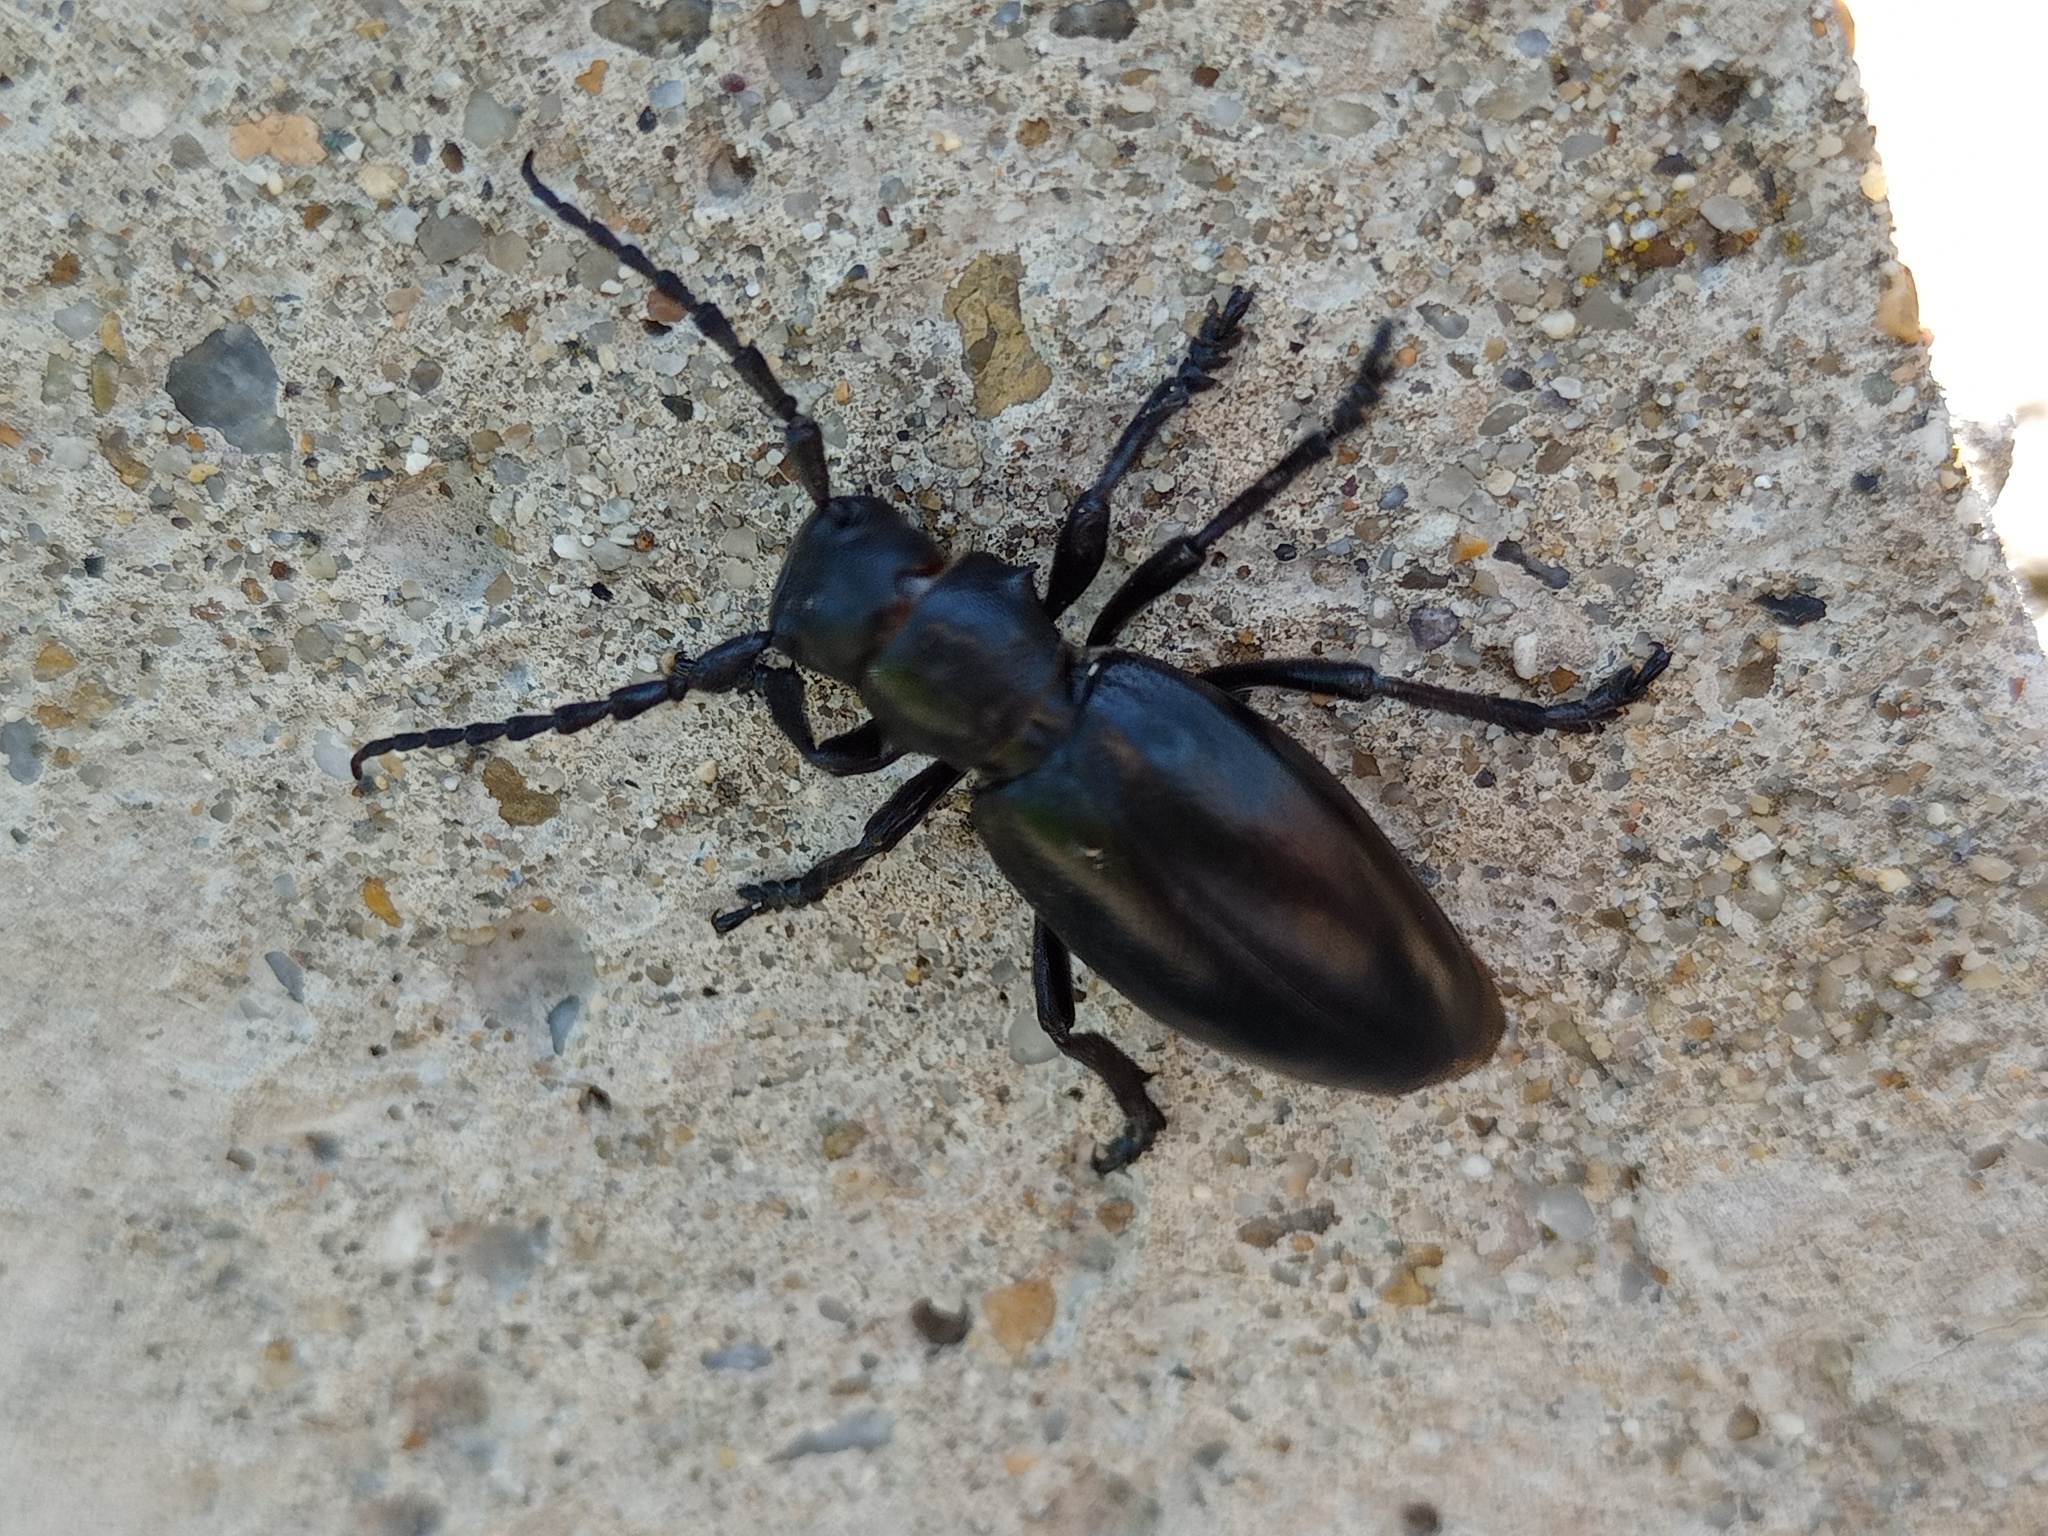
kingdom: Animalia
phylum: Arthropoda
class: Insecta
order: Coleoptera
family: Cerambycidae
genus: Dorcadion
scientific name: Dorcadion aethiops
